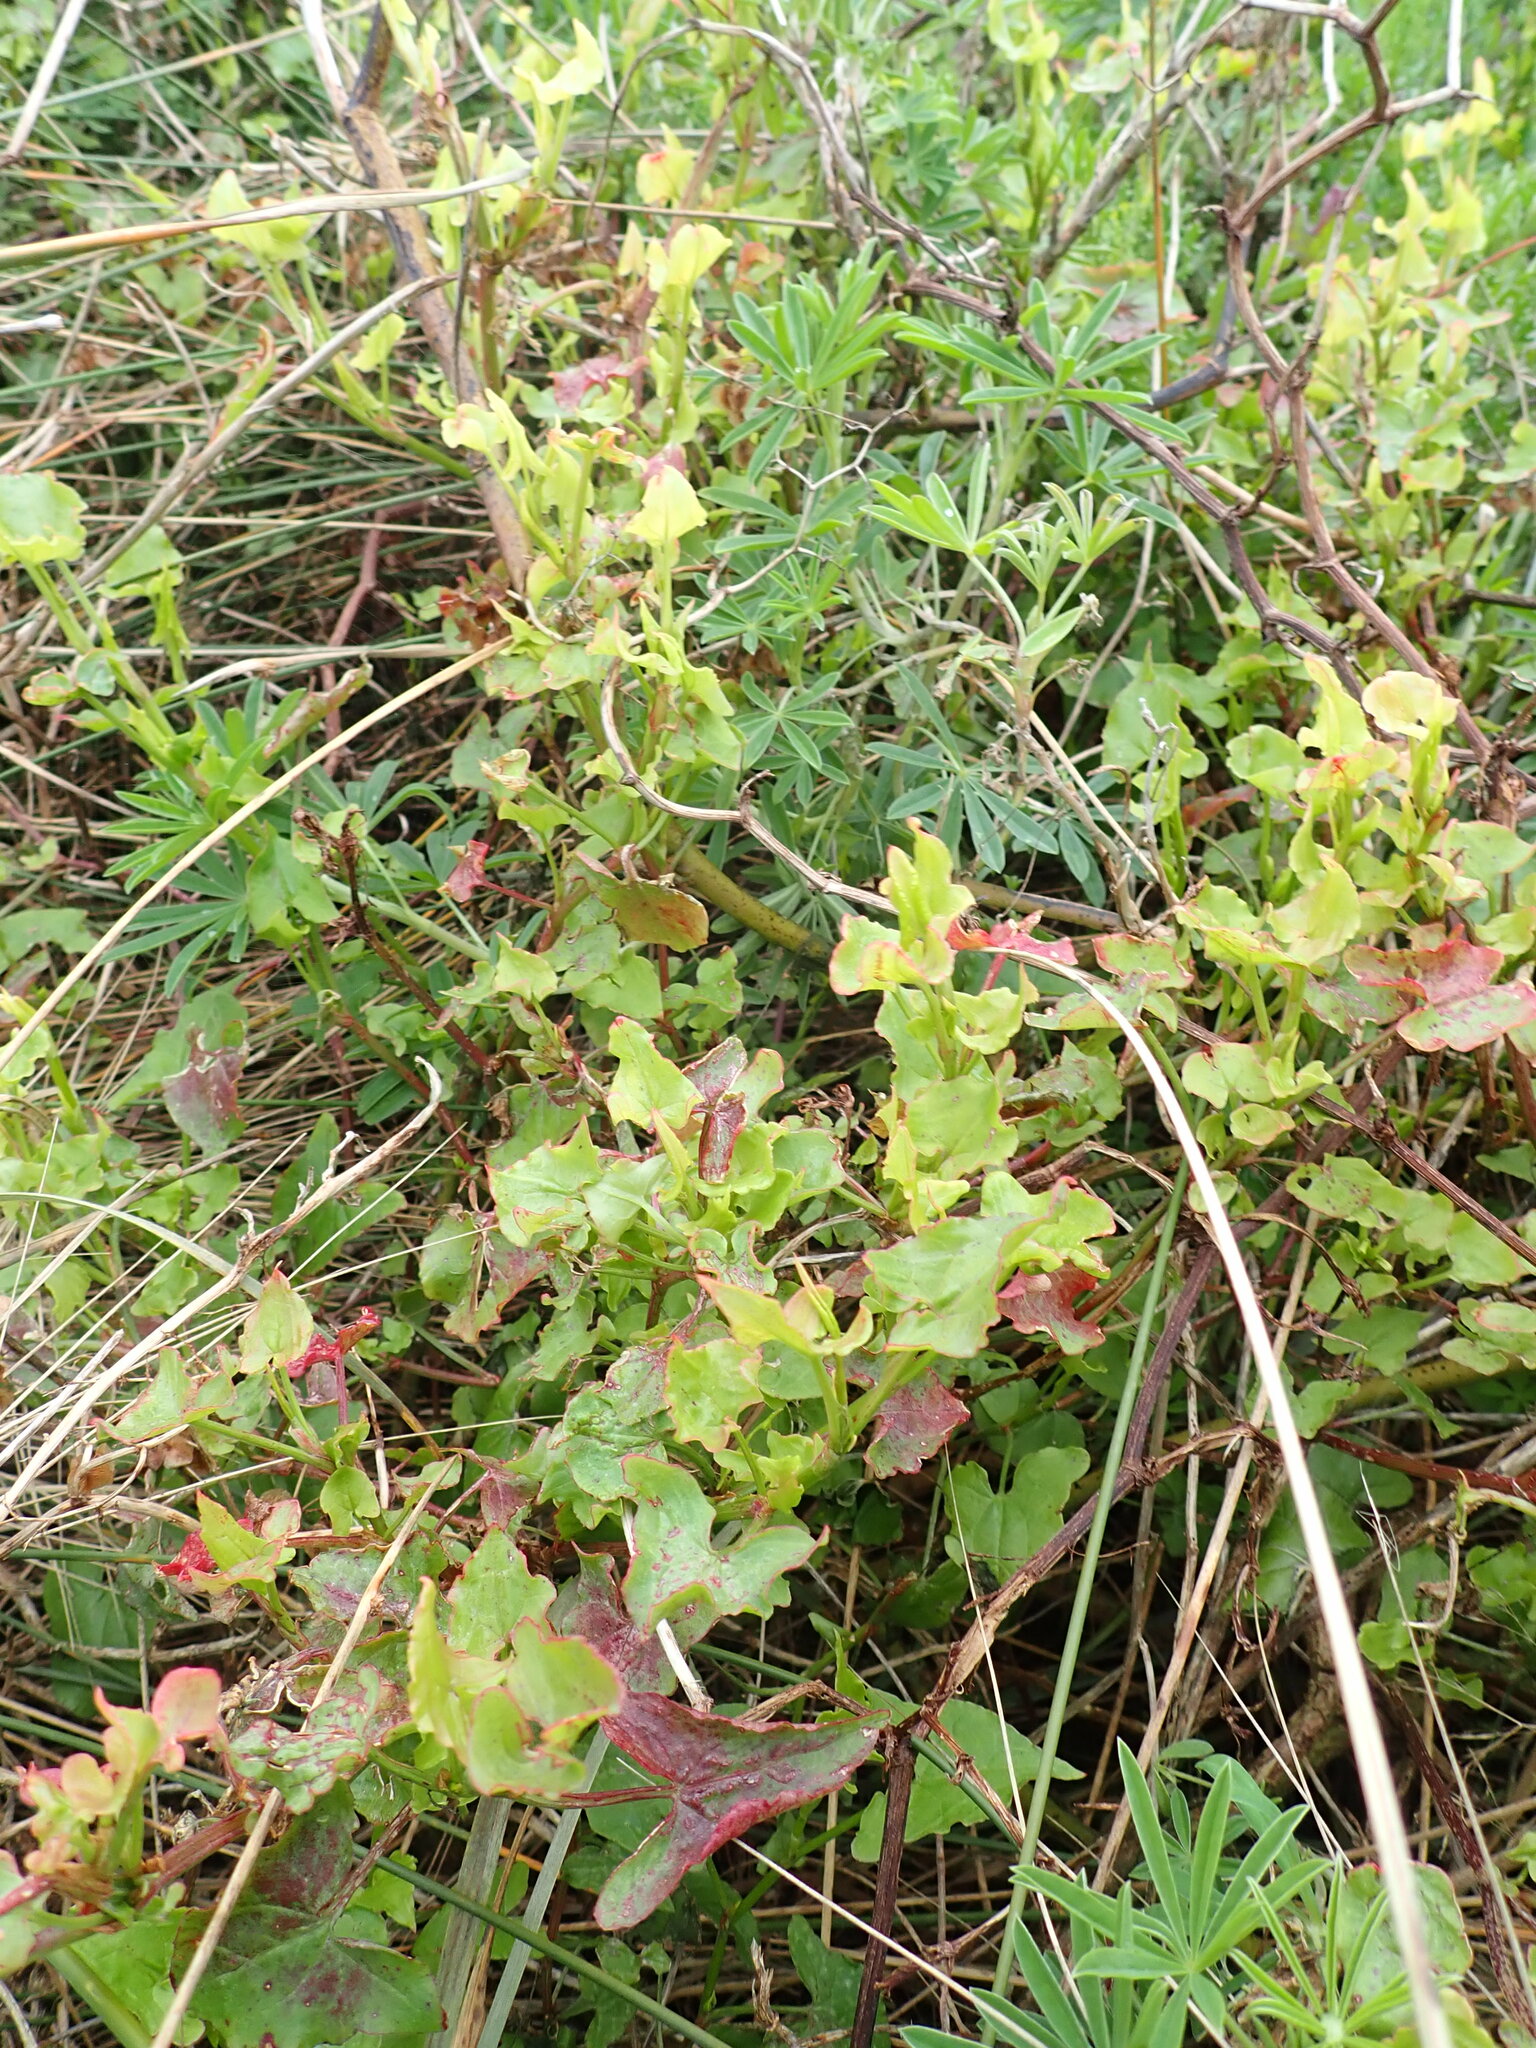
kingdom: Plantae
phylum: Tracheophyta
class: Magnoliopsida
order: Caryophyllales
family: Polygonaceae
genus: Rumex
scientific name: Rumex sagittatus
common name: Climbing dock
